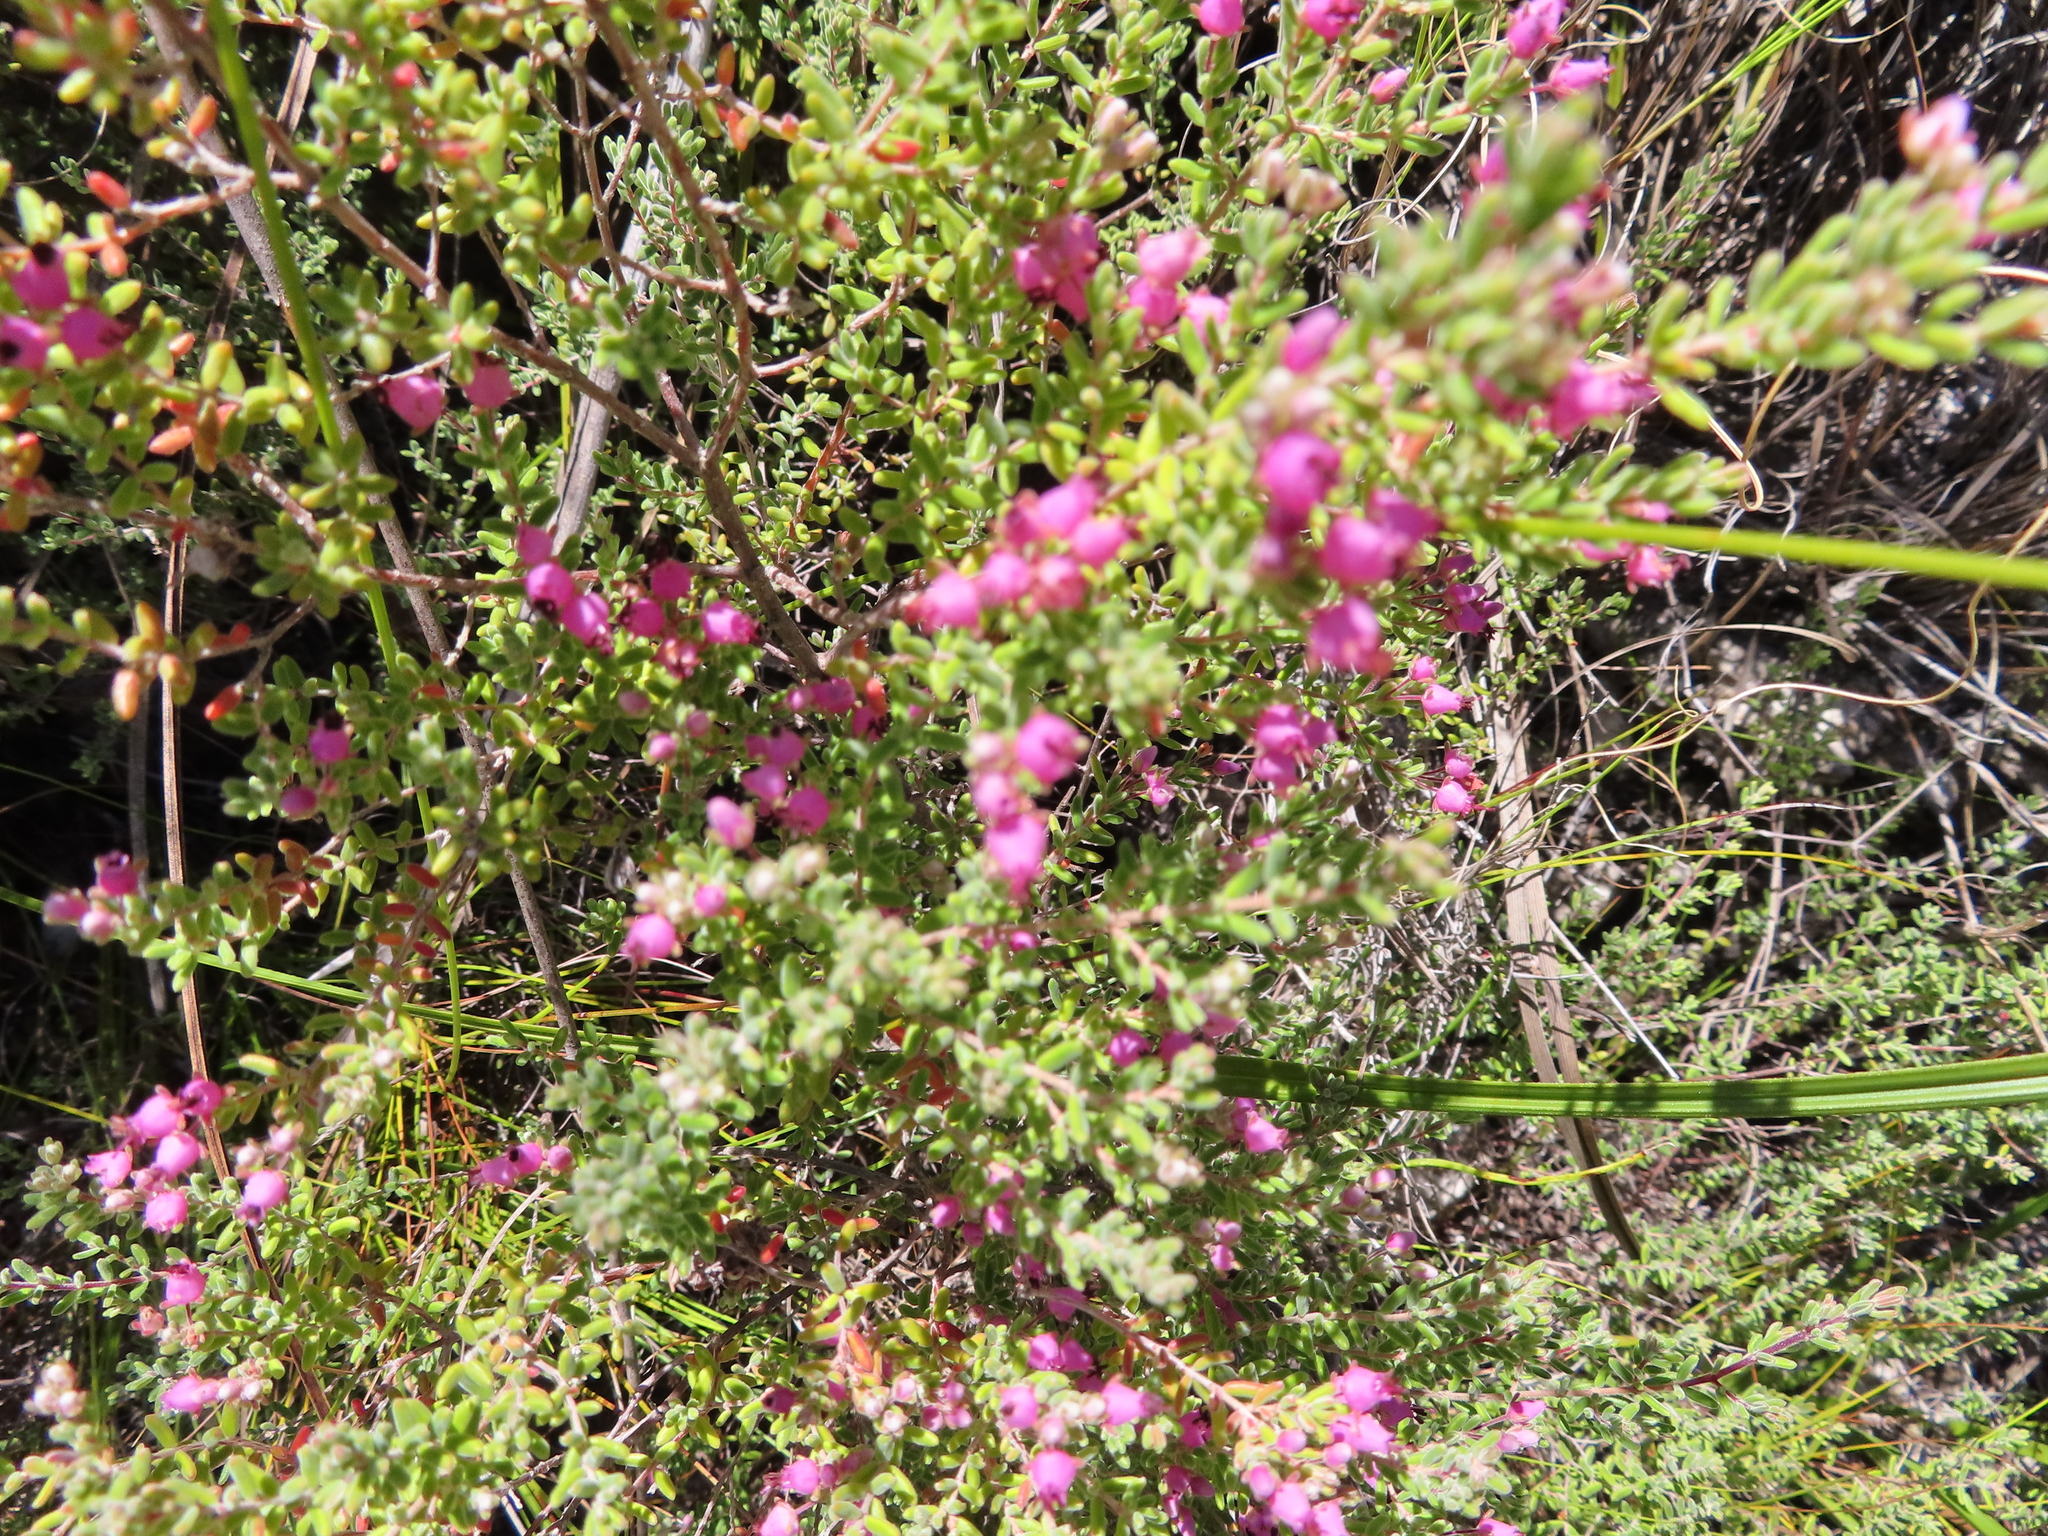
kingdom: Plantae
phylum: Tracheophyta
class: Magnoliopsida
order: Ericales
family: Ericaceae
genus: Erica
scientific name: Erica tradouwensis
